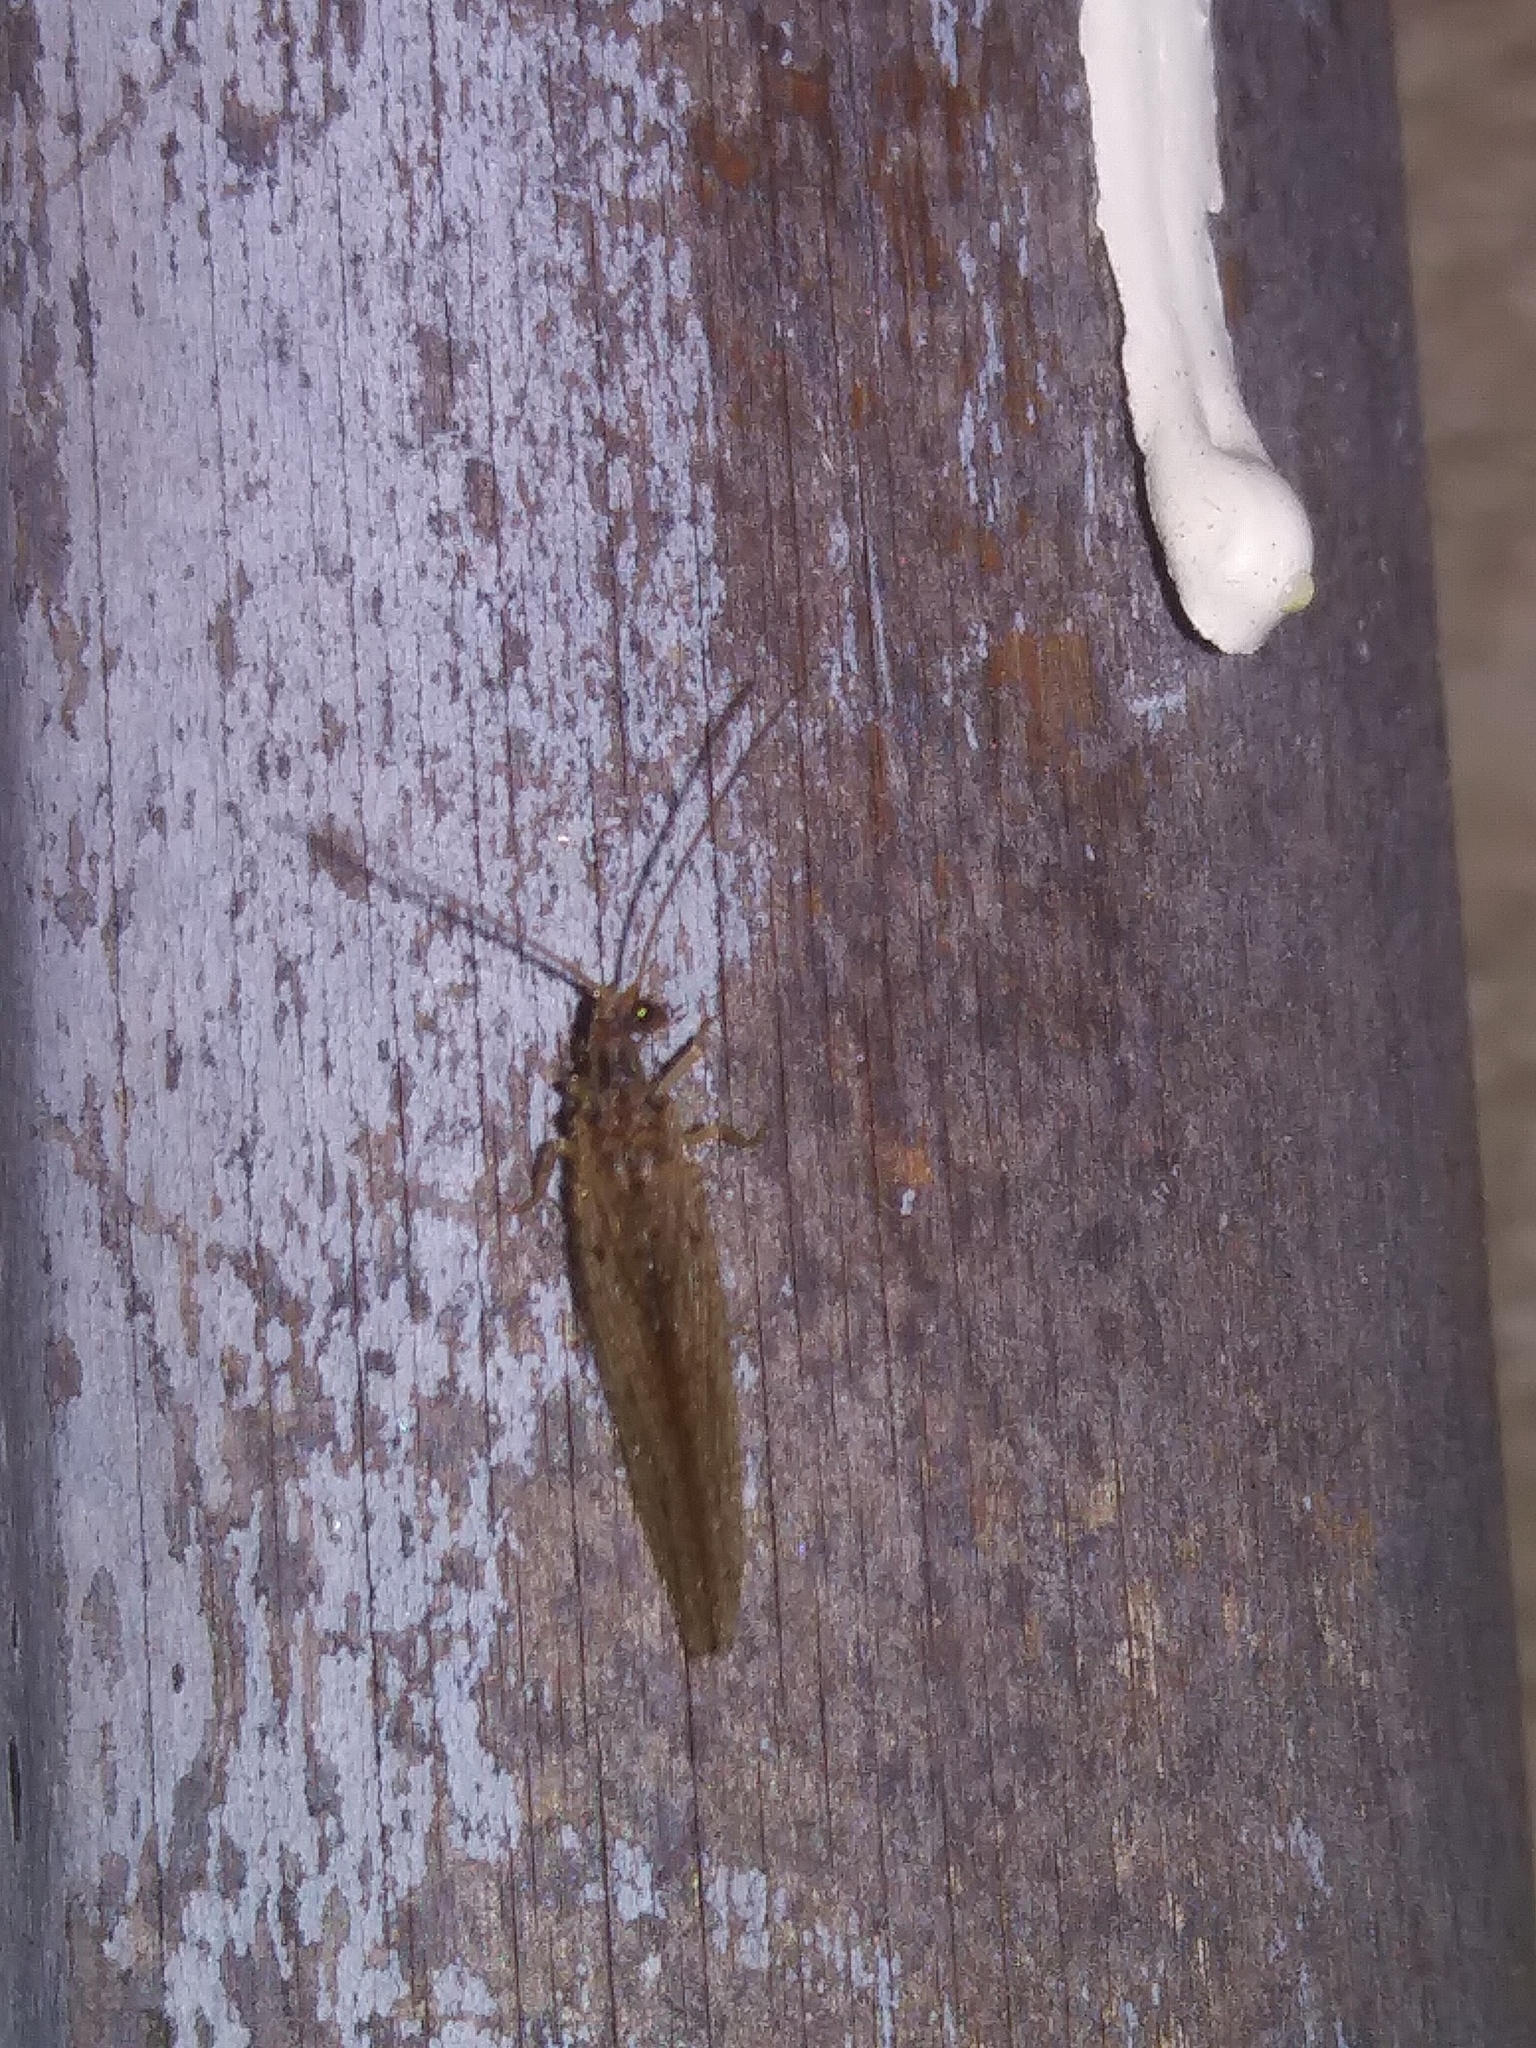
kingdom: Animalia
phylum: Arthropoda
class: Insecta
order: Neuroptera
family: Hemerobiidae
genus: Micromus
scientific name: Micromus subanticus
